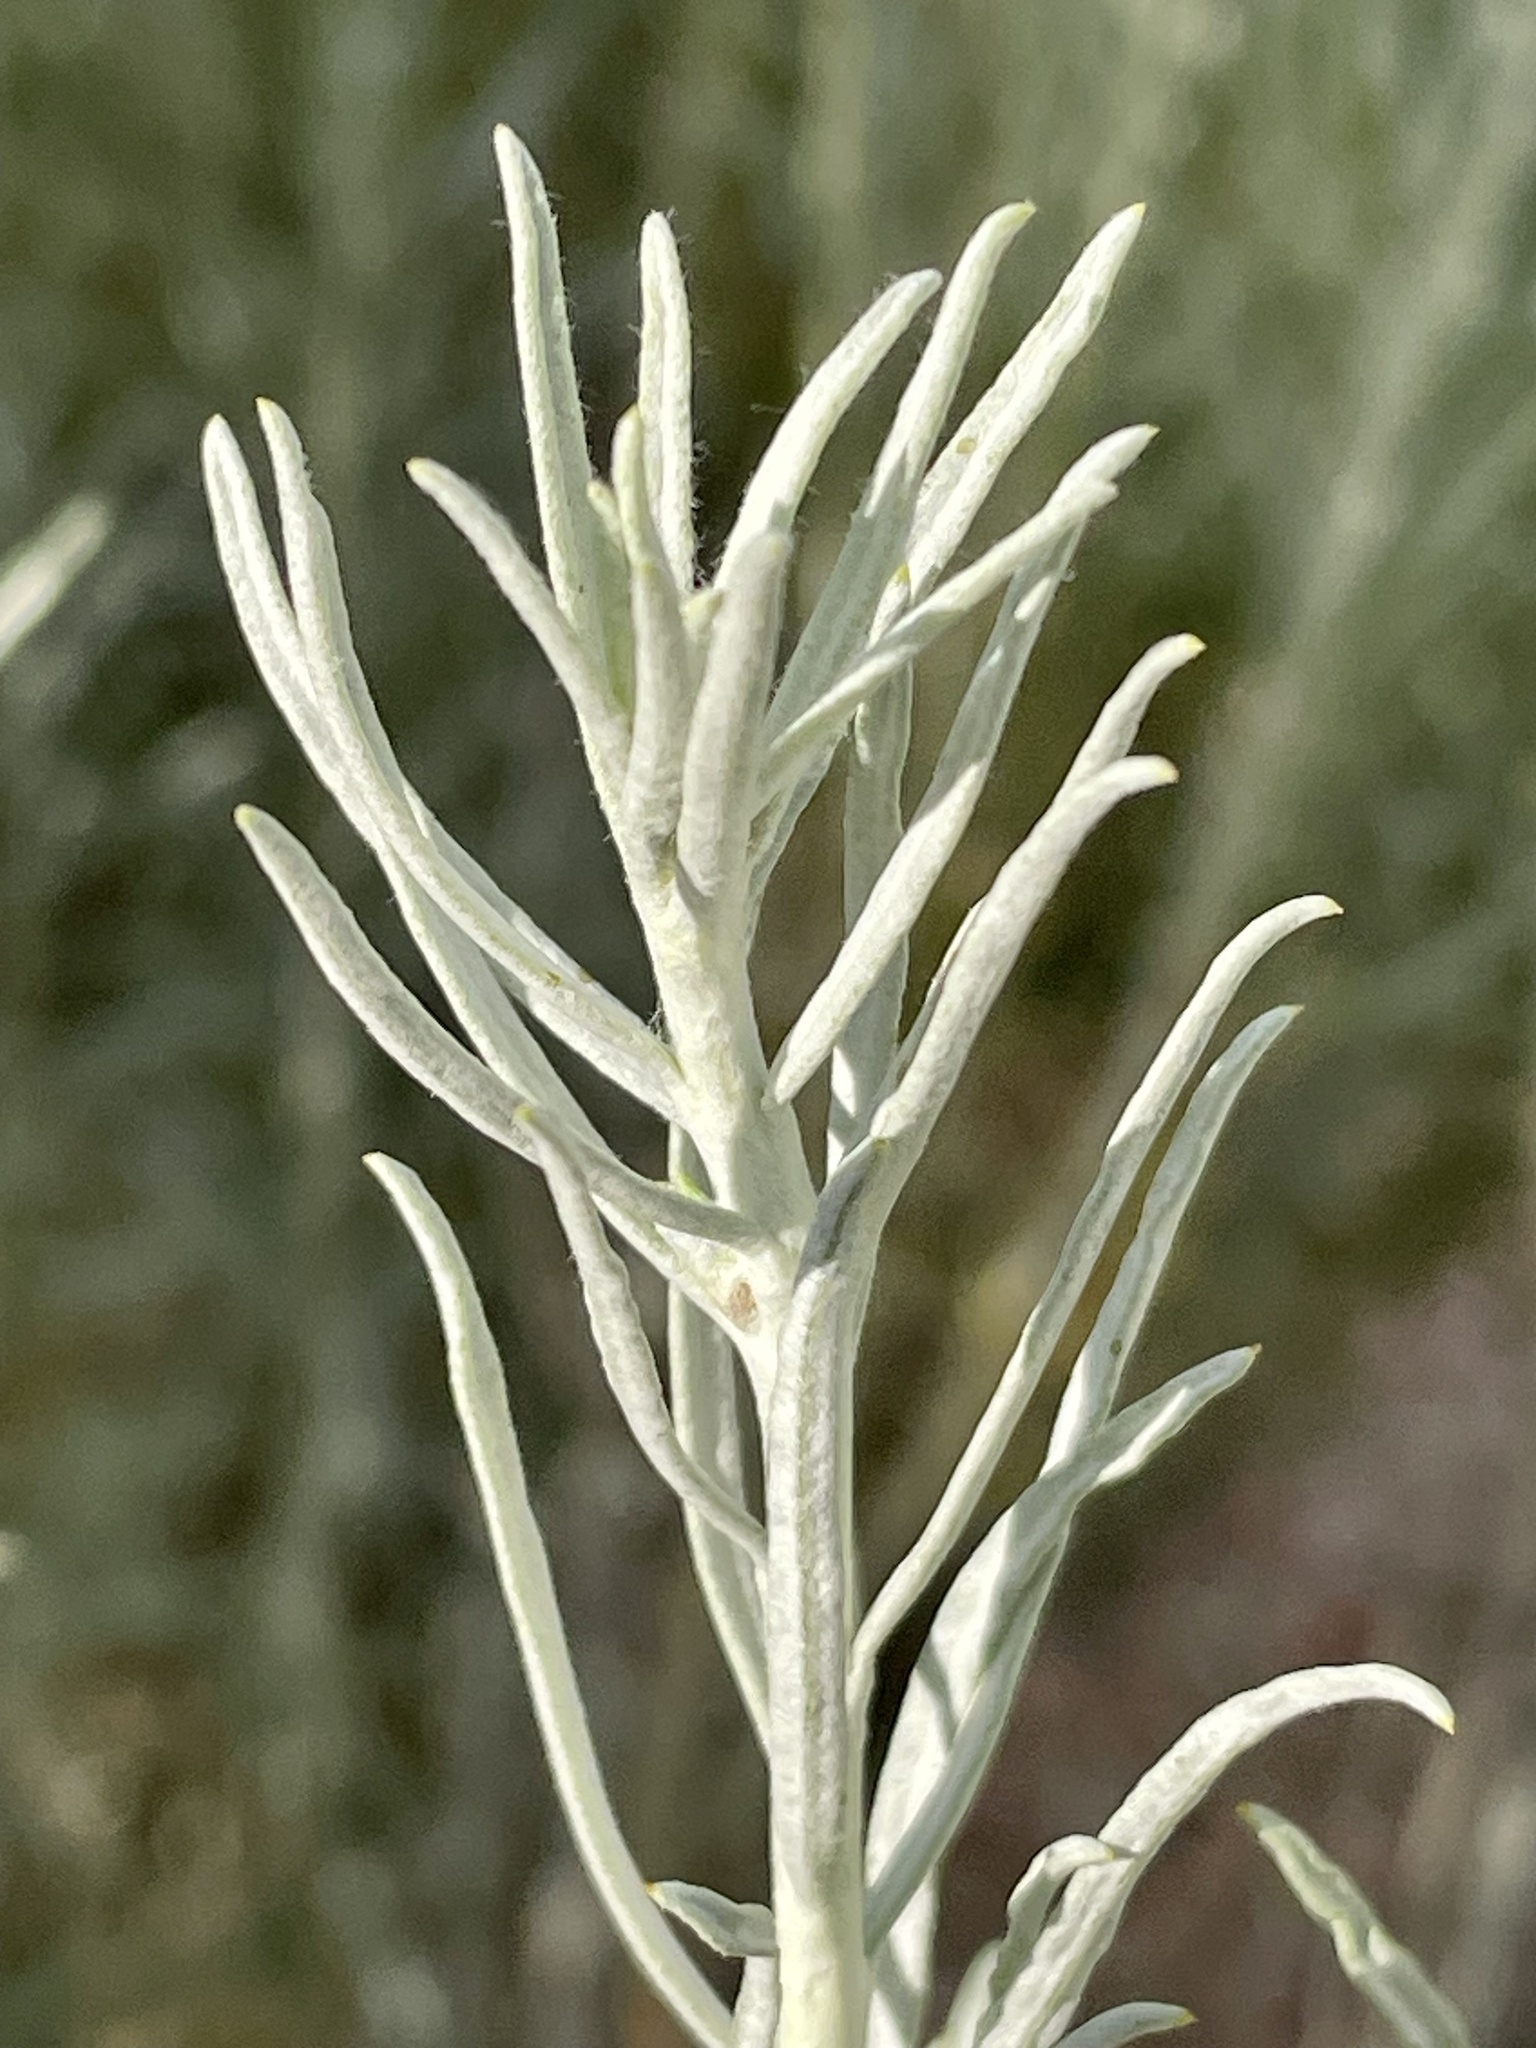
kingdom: Plantae
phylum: Tracheophyta
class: Magnoliopsida
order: Asterales
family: Asteraceae
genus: Ericameria
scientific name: Ericameria nauseosa
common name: Rubber rabbitbrush
